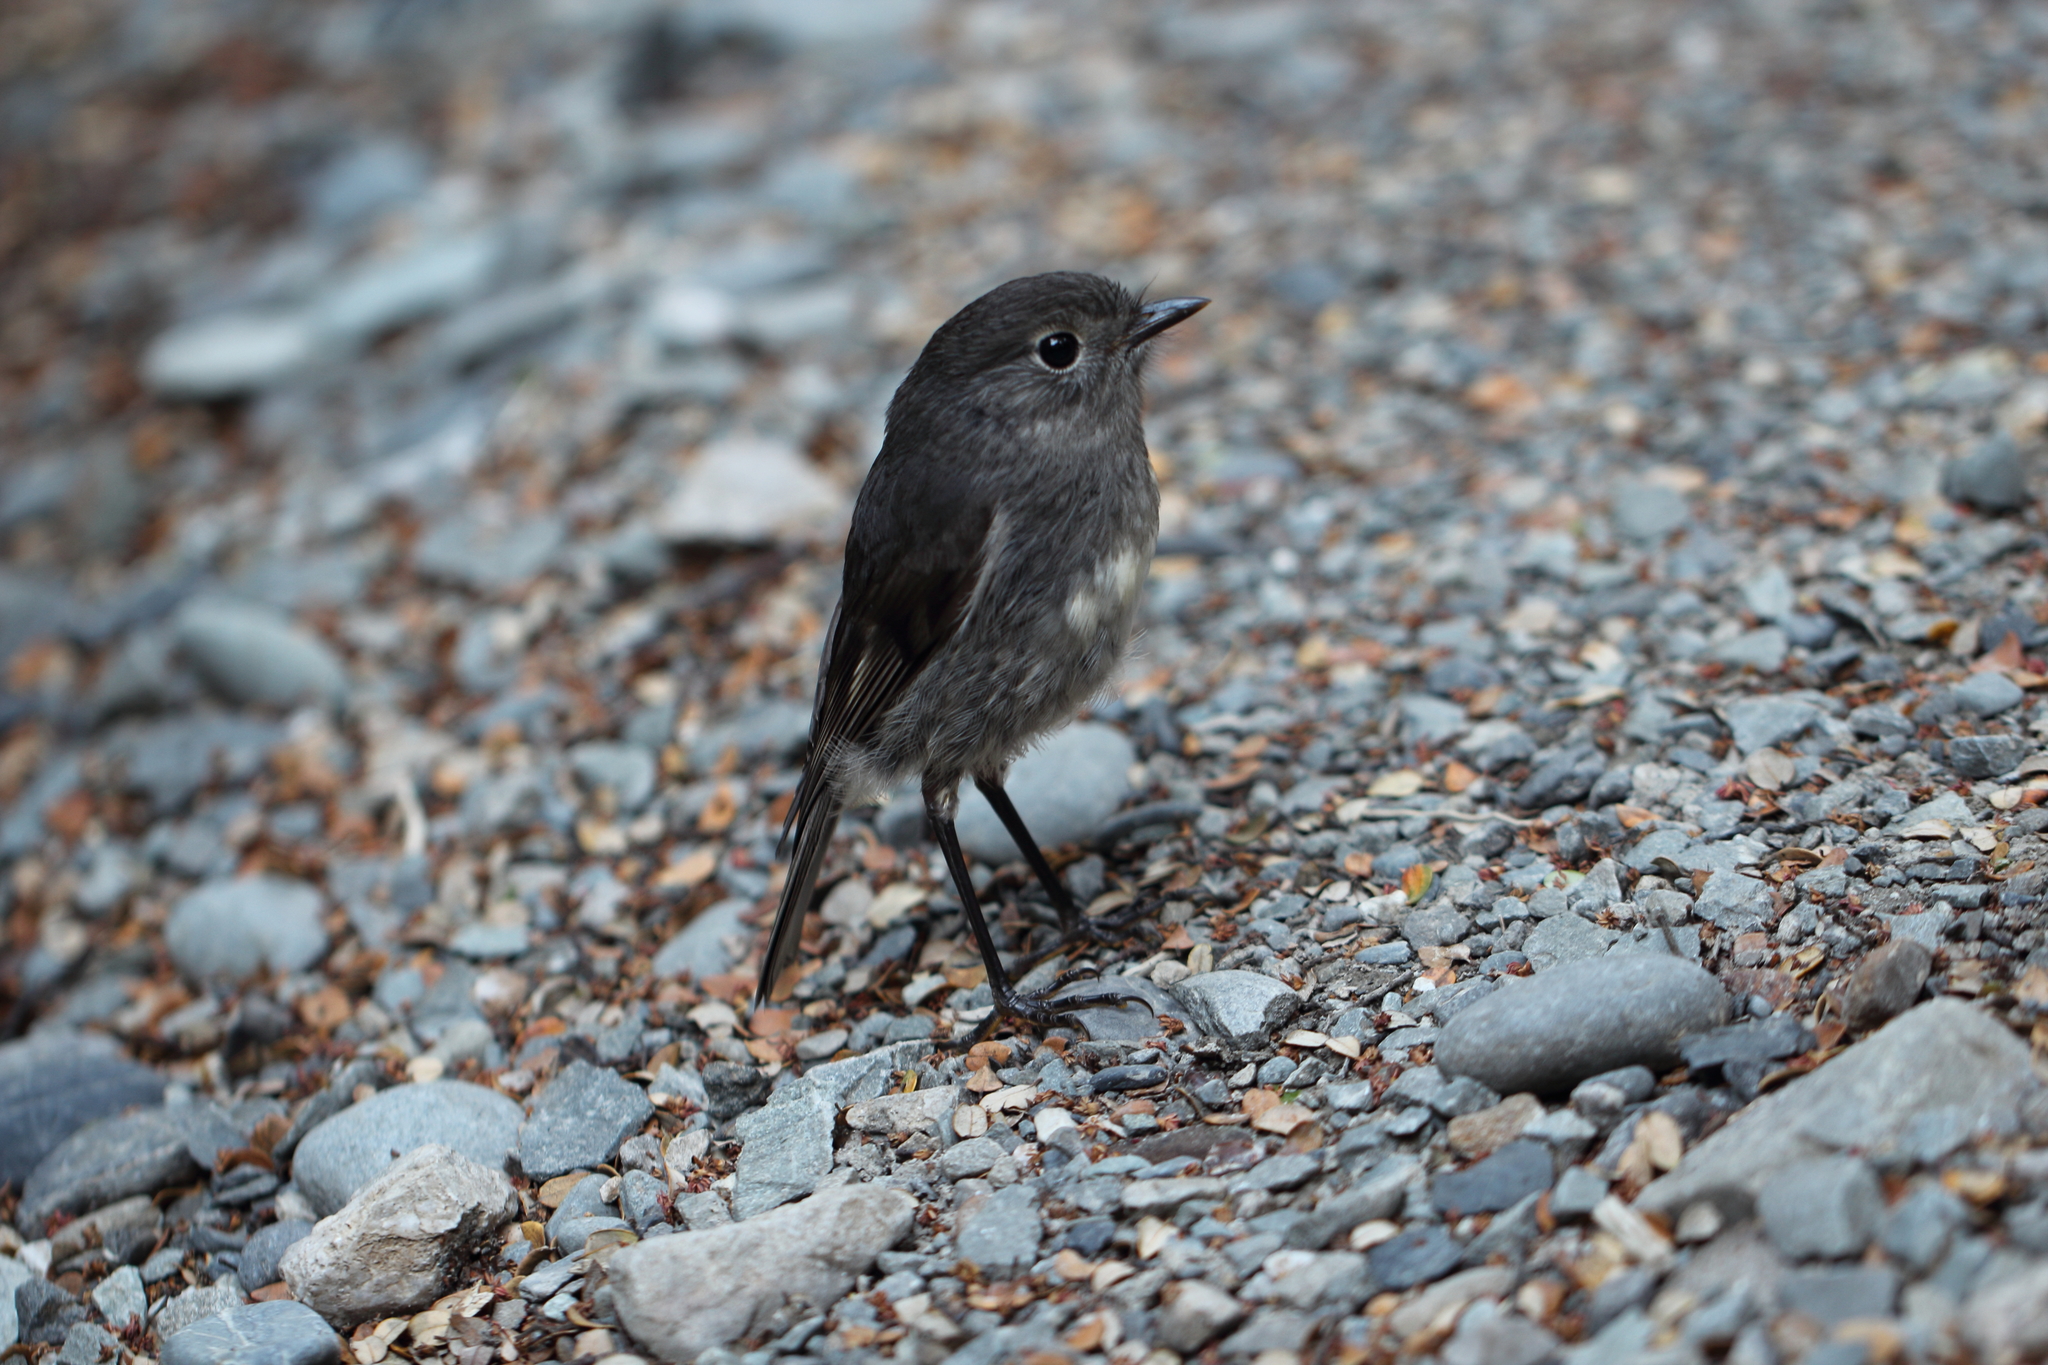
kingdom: Animalia
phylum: Chordata
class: Aves
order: Passeriformes
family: Petroicidae
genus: Petroica
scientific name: Petroica australis
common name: New zealand robin
